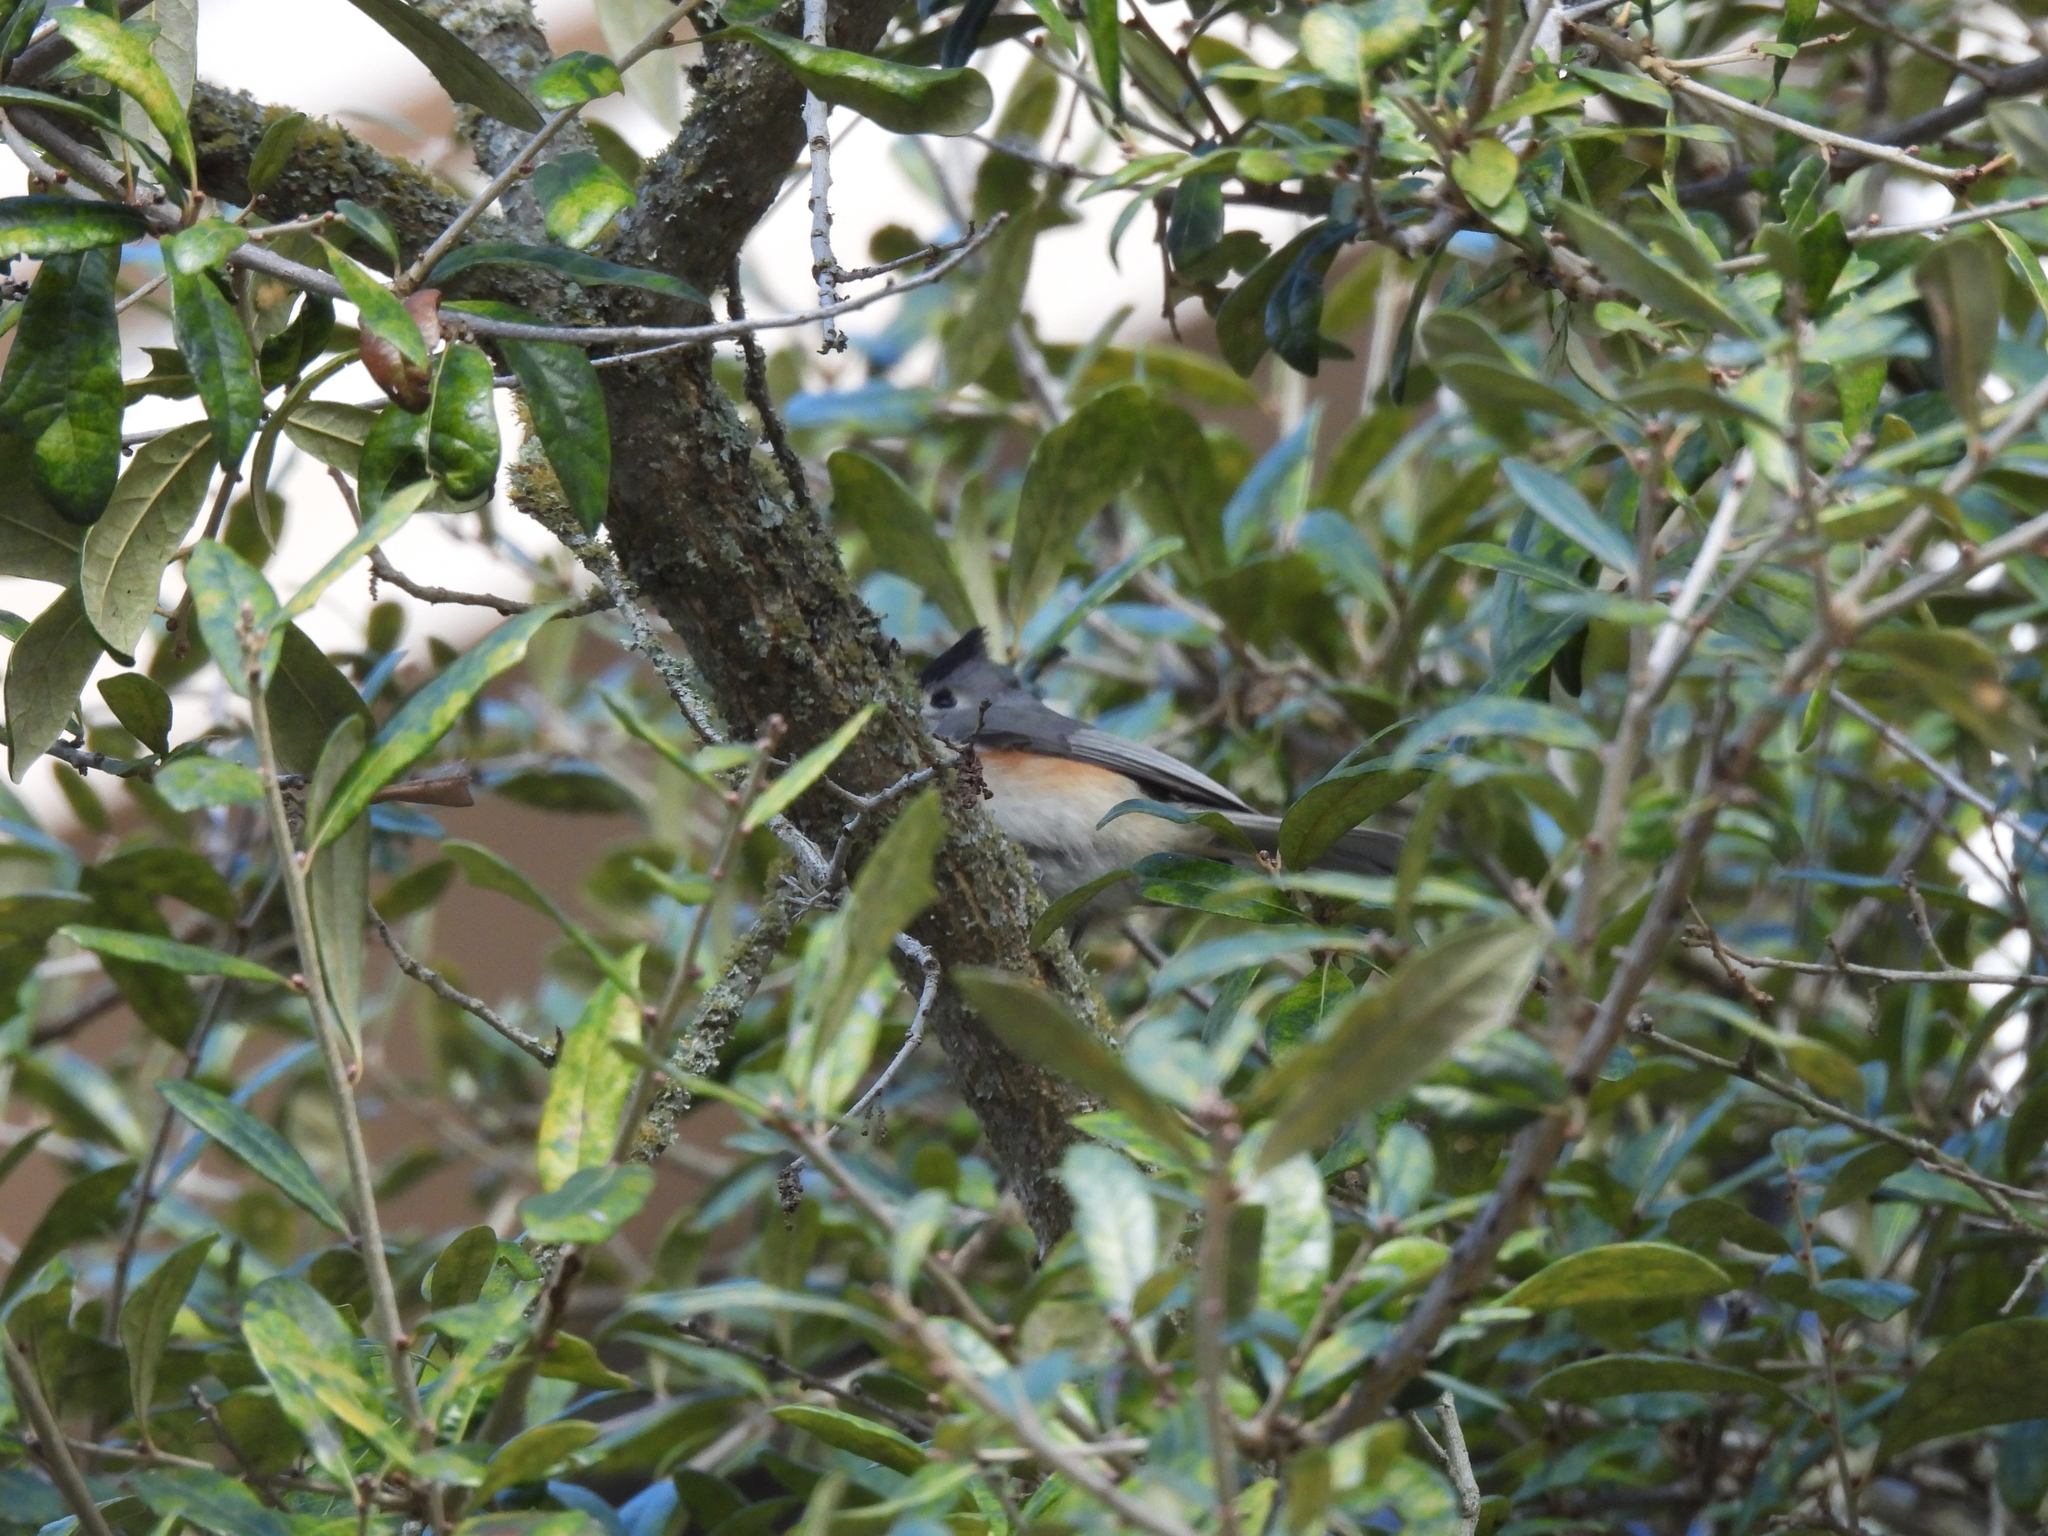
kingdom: Animalia
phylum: Chordata
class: Aves
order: Passeriformes
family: Paridae
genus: Baeolophus
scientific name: Baeolophus atricristatus
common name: Black-crested titmouse
